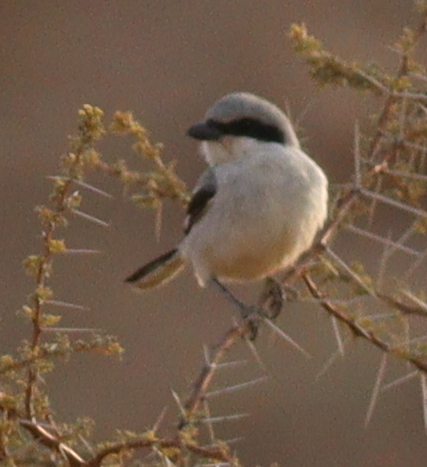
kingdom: Animalia
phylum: Chordata
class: Aves
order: Passeriformes
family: Laniidae
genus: Lanius
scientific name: Lanius excubitor
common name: Great grey shrike
